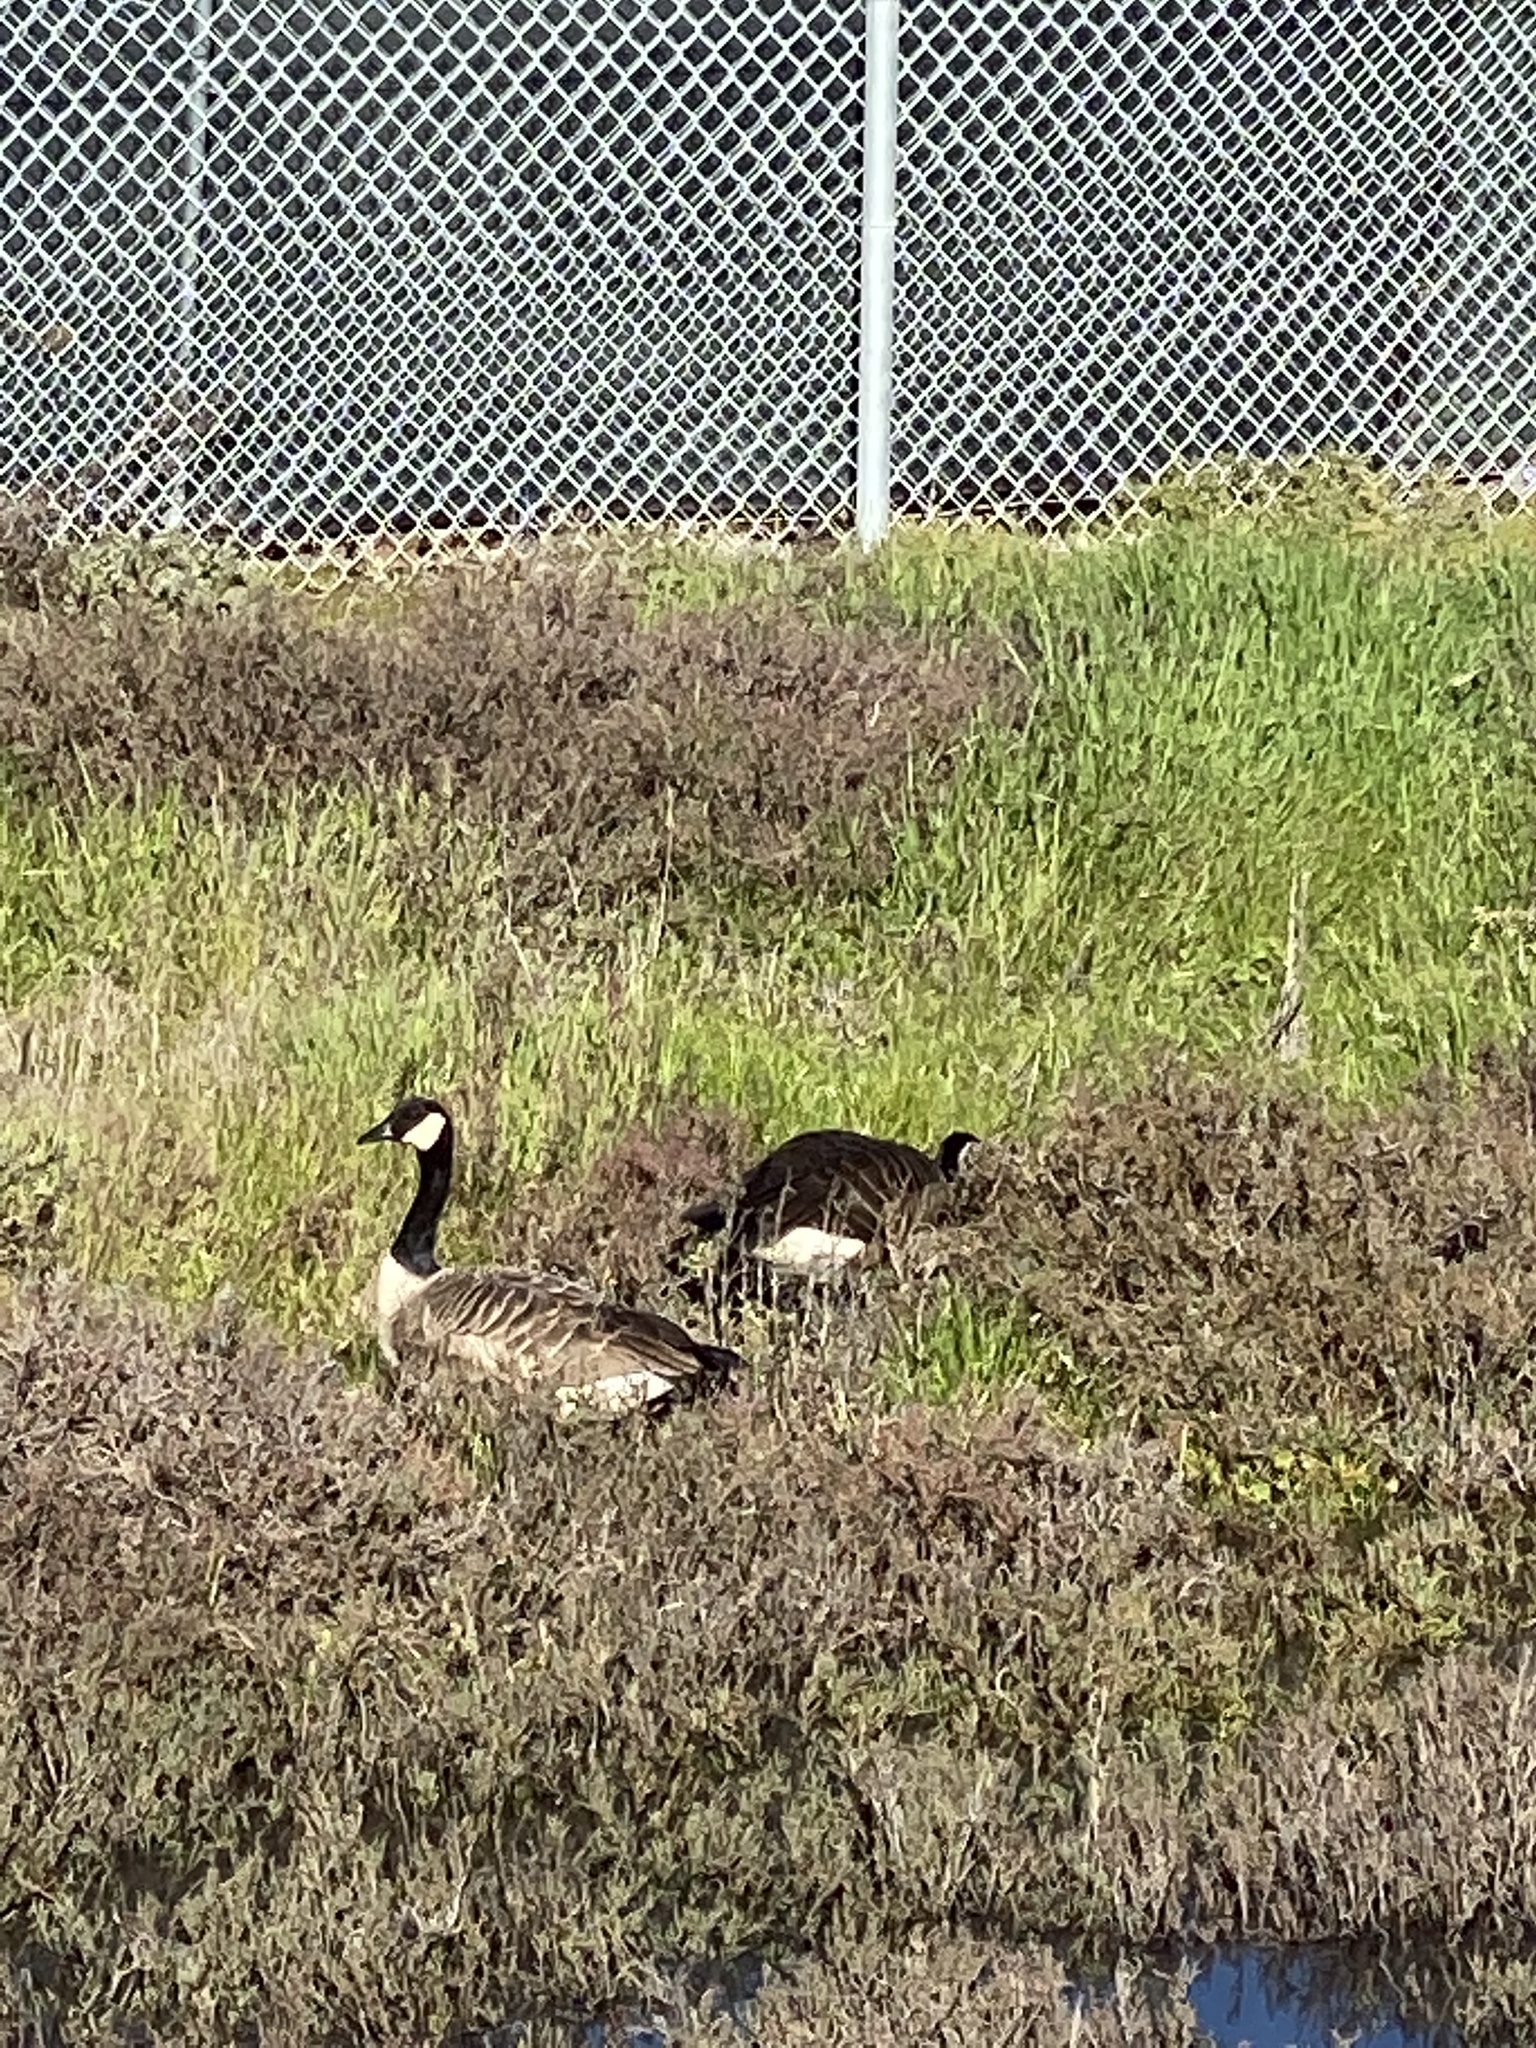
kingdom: Animalia
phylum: Chordata
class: Aves
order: Anseriformes
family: Anatidae
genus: Branta
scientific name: Branta canadensis
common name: Canada goose
